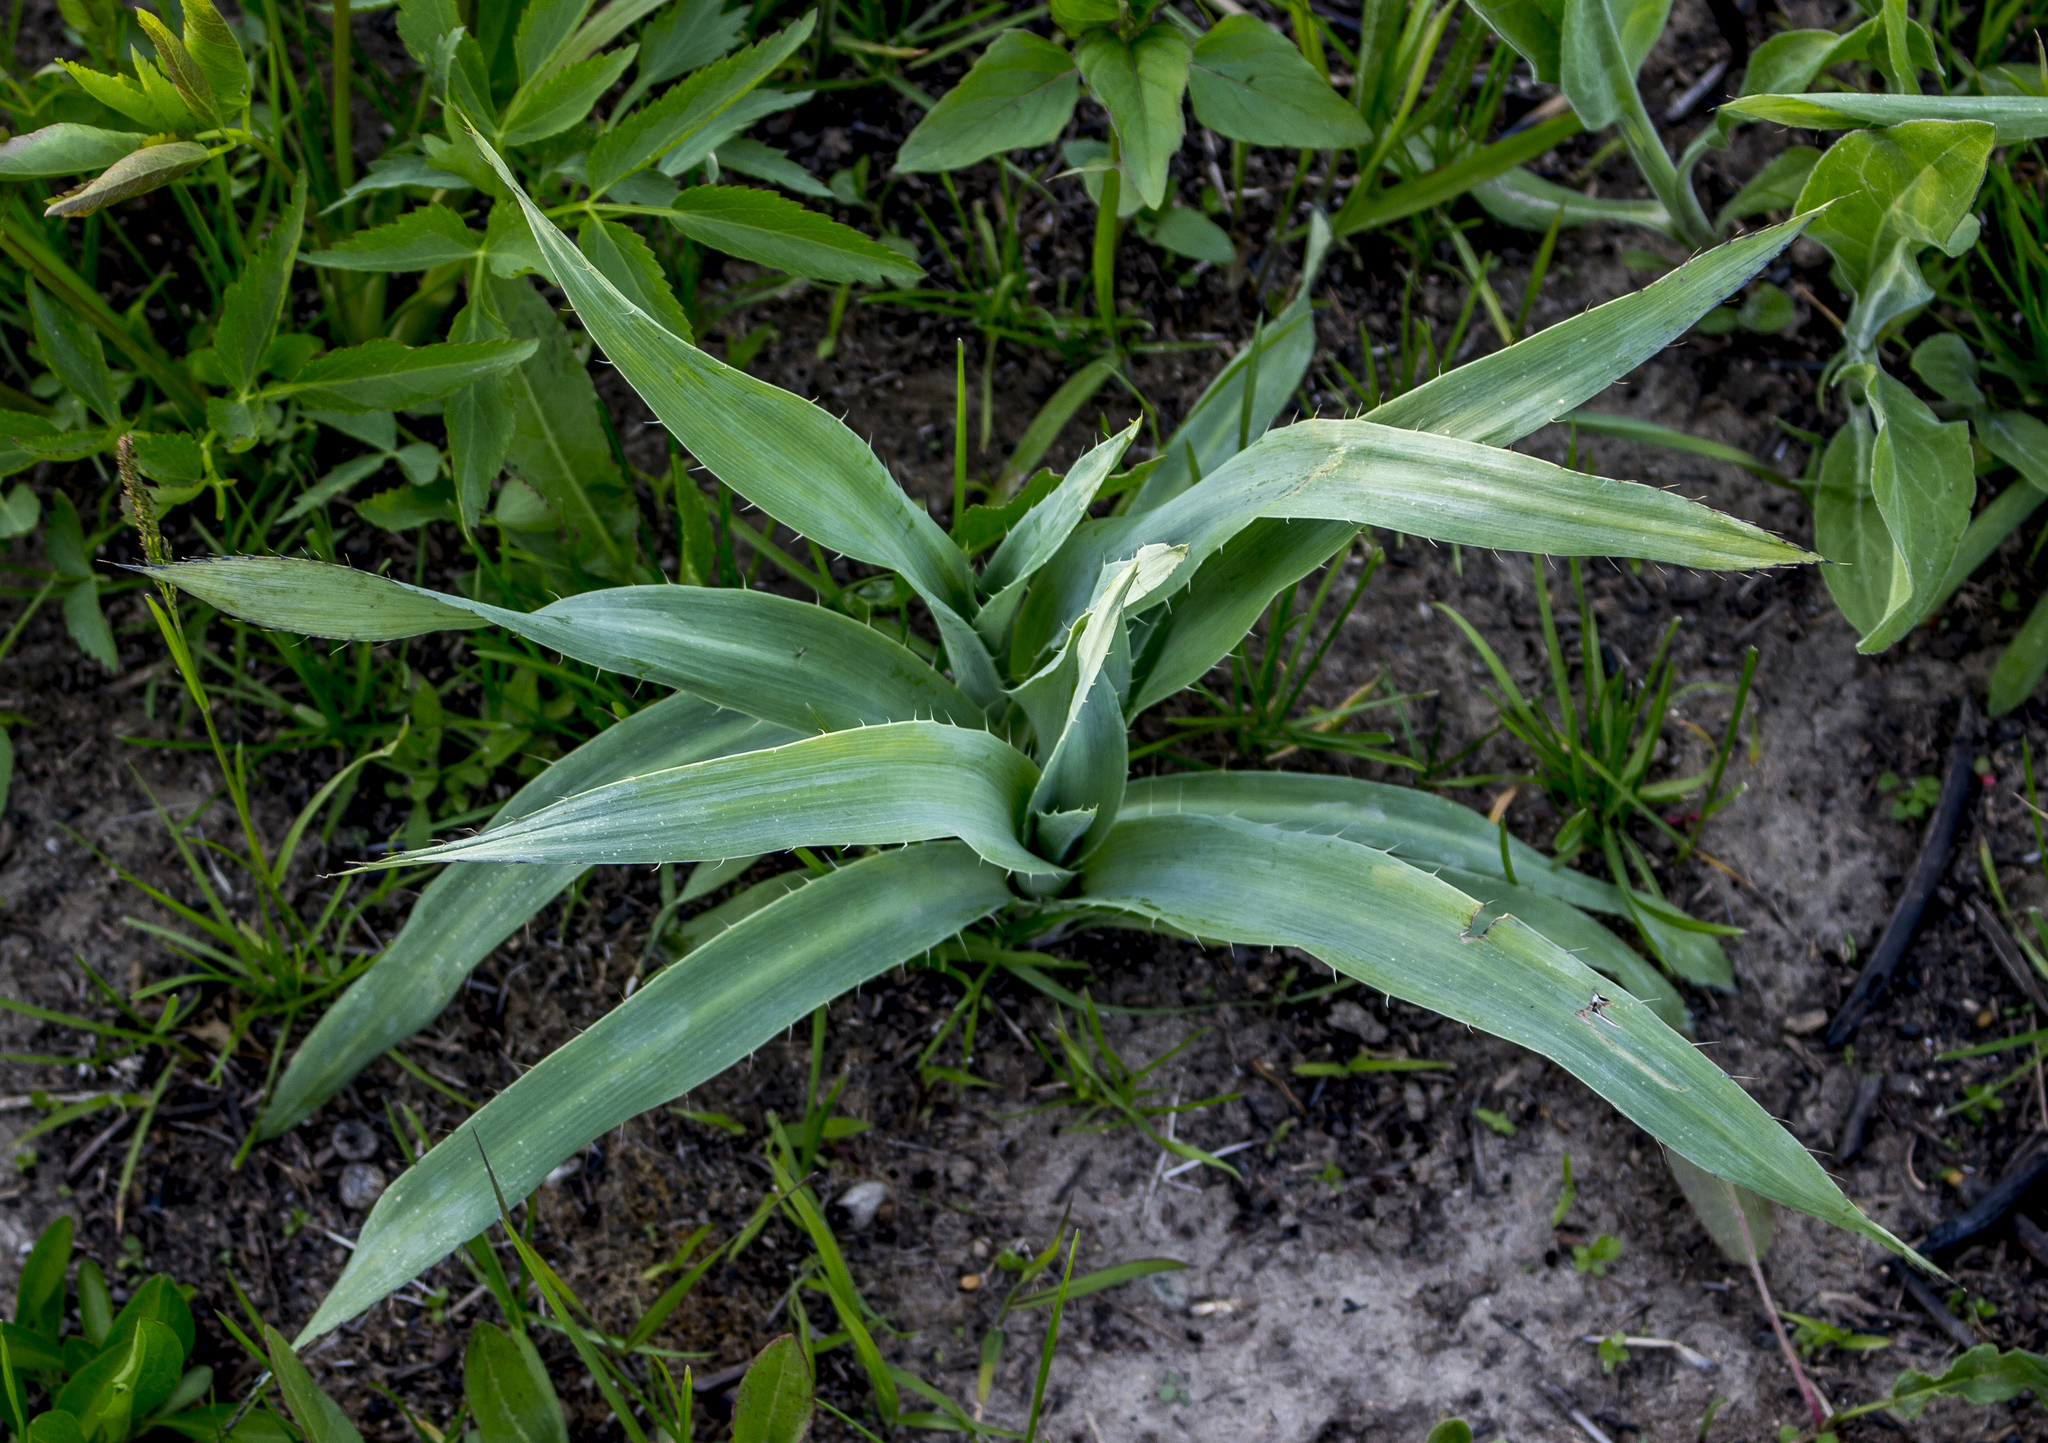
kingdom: Plantae
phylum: Tracheophyta
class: Magnoliopsida
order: Apiales
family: Apiaceae
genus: Eryngium
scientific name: Eryngium yuccifolium
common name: Button eryngo
